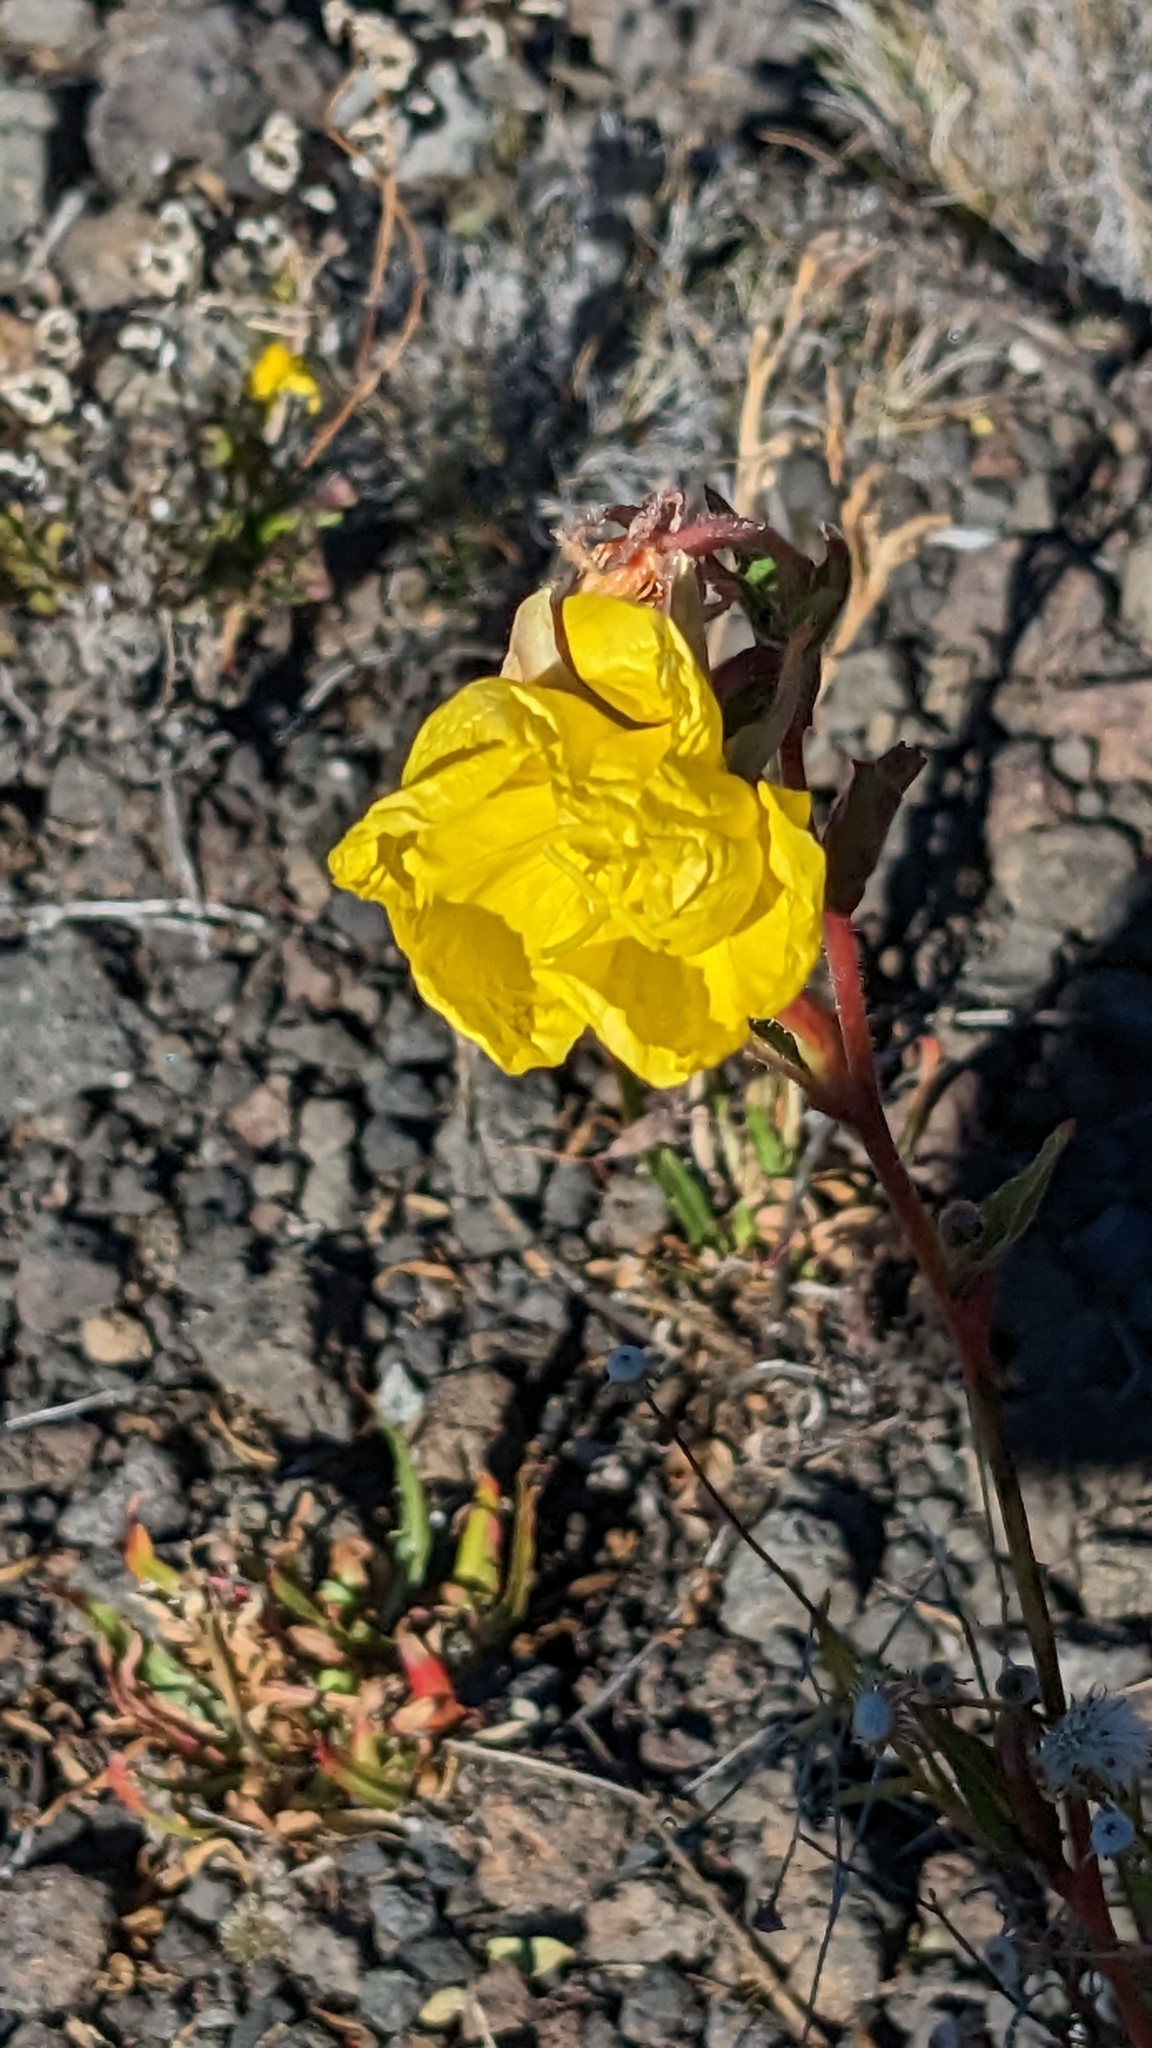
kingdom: Plantae
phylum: Tracheophyta
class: Magnoliopsida
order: Myrtales
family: Onagraceae
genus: Oenothera
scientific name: Oenothera stricta
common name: Fragrant evening-primrose
